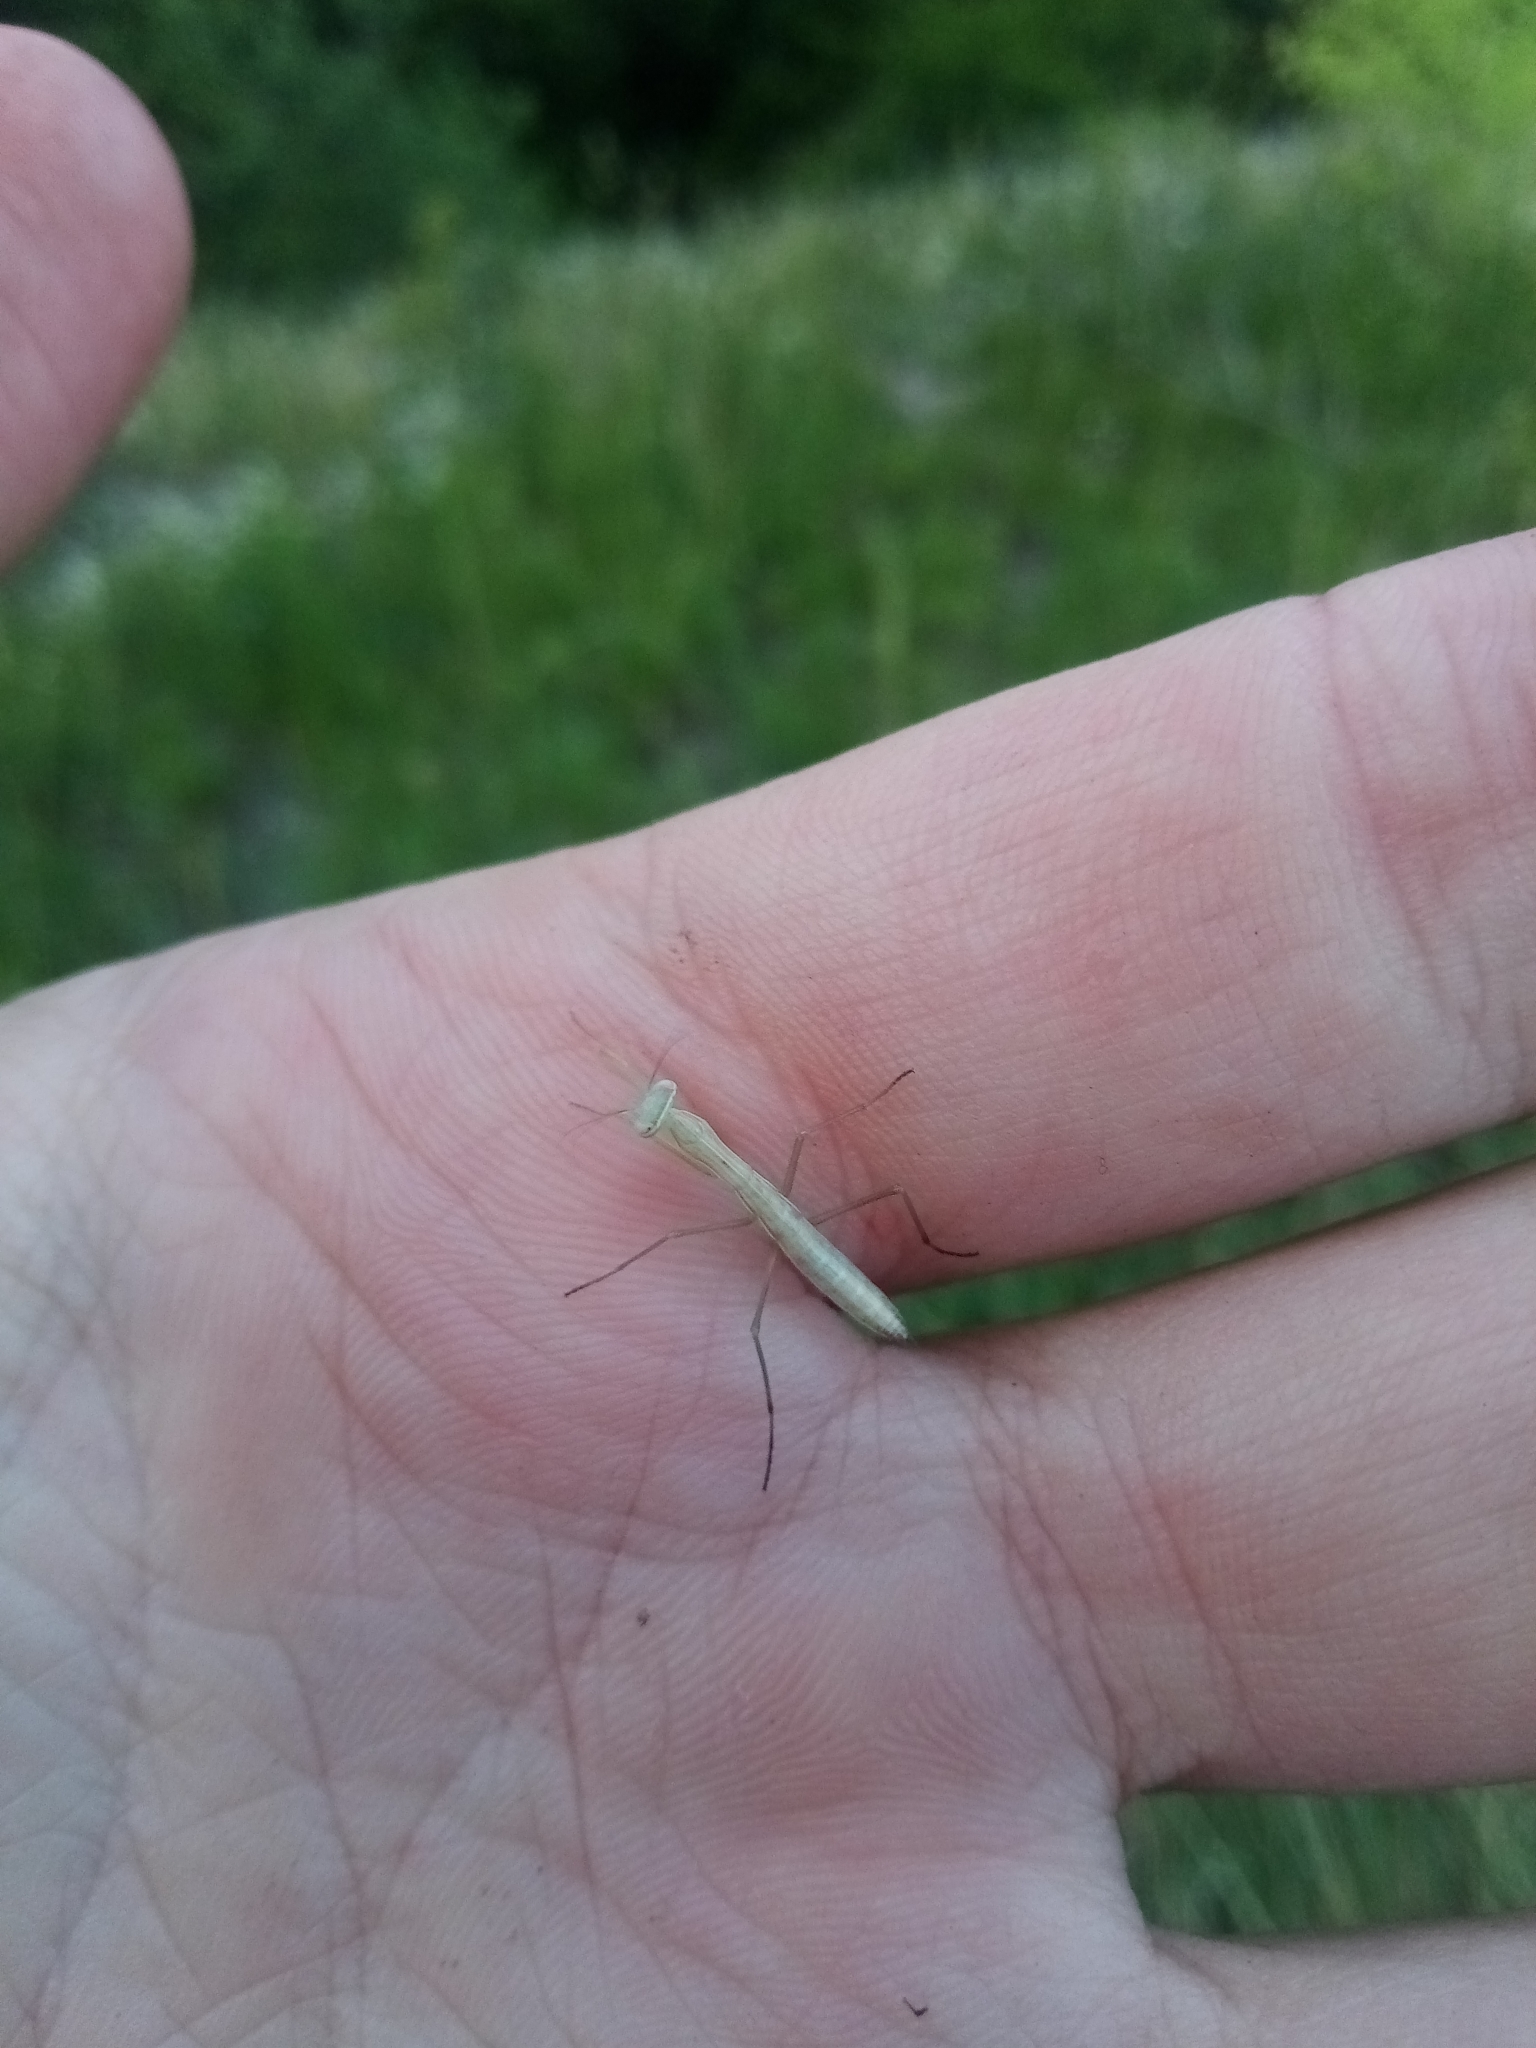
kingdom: Animalia
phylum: Arthropoda
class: Insecta
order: Mantodea
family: Mantidae
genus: Mantis
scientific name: Mantis religiosa
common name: Praying mantis
